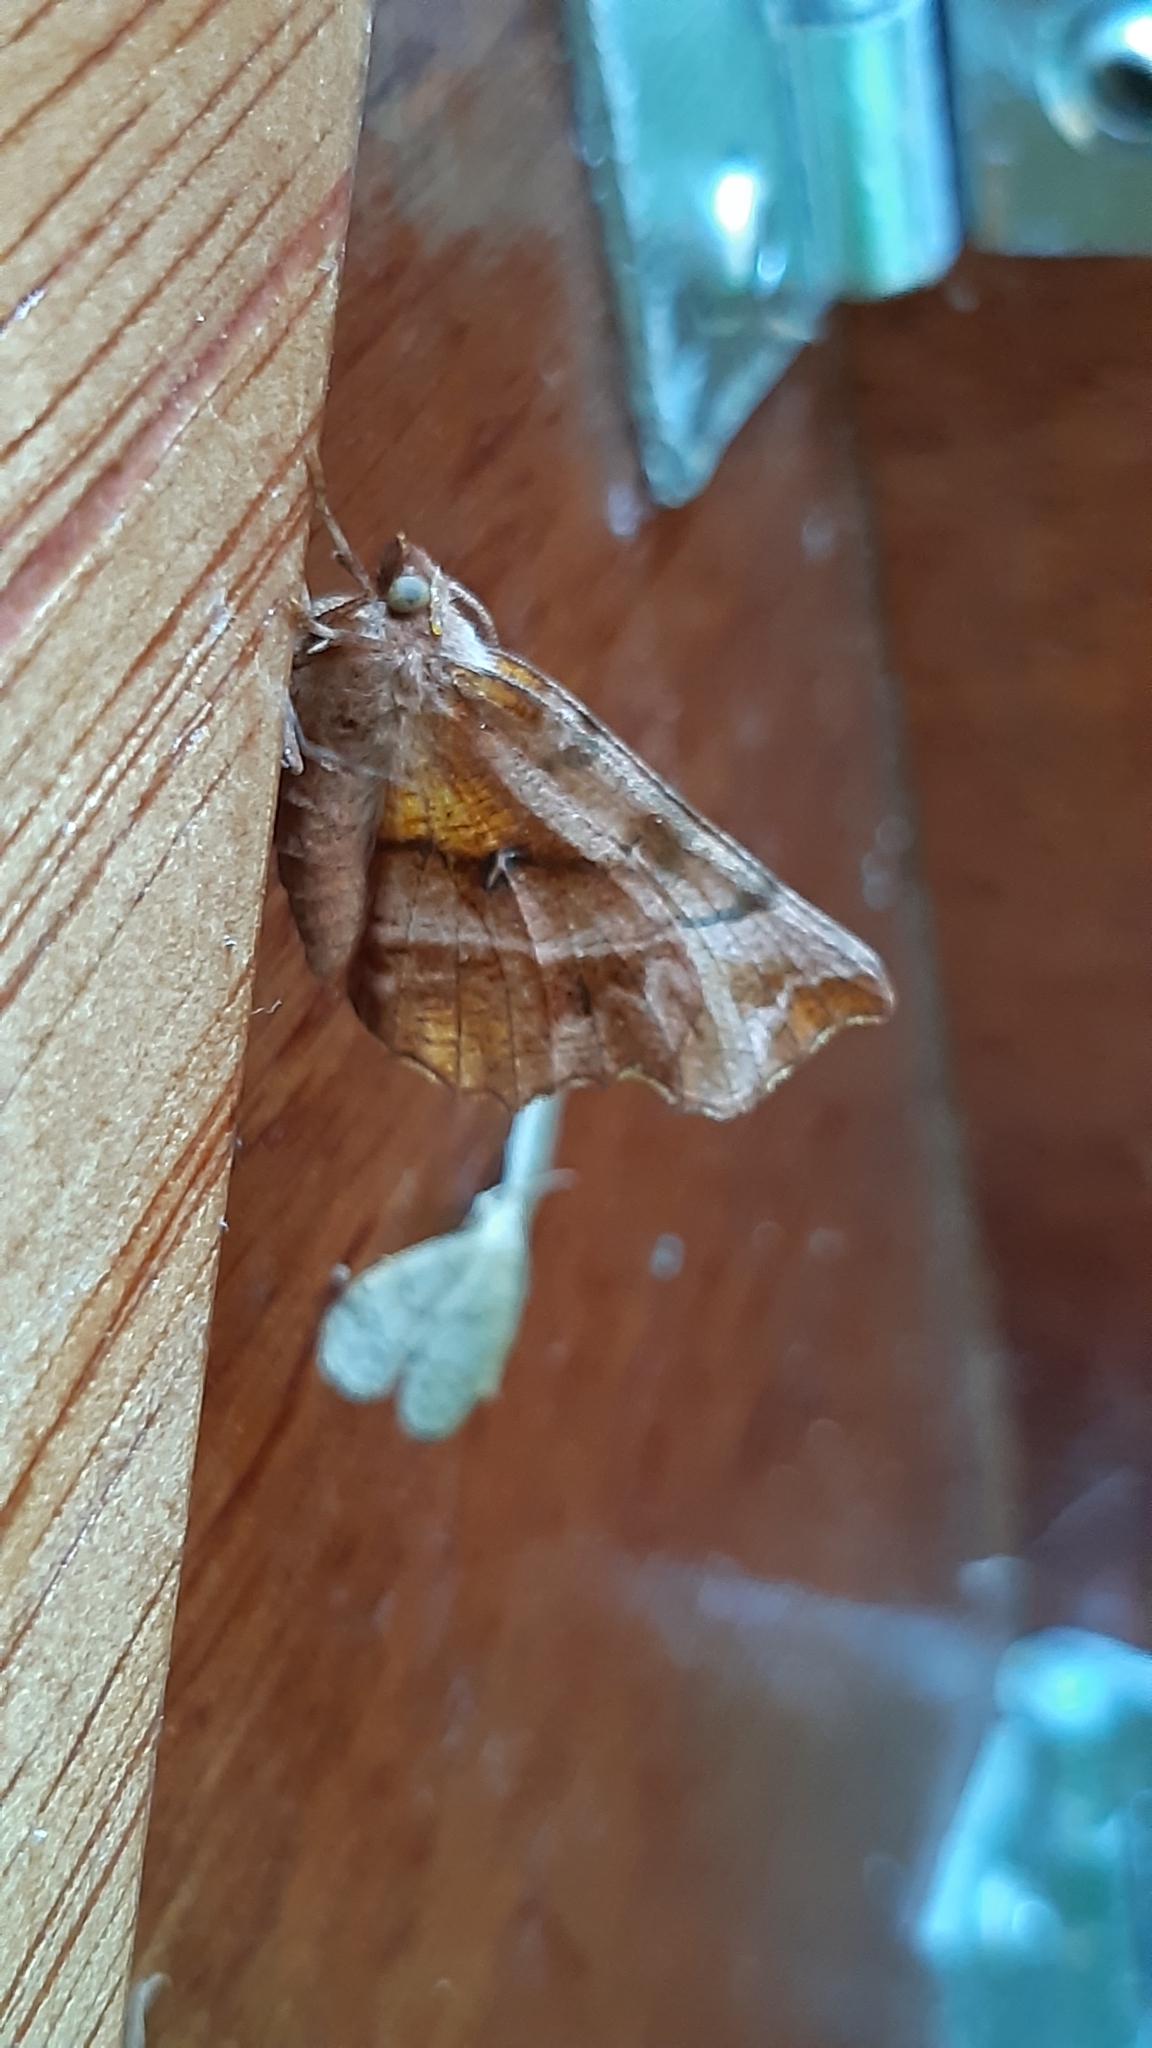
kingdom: Animalia
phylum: Arthropoda
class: Insecta
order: Lepidoptera
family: Geometridae
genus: Selenia
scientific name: Selenia dentaria
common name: Early thorn
